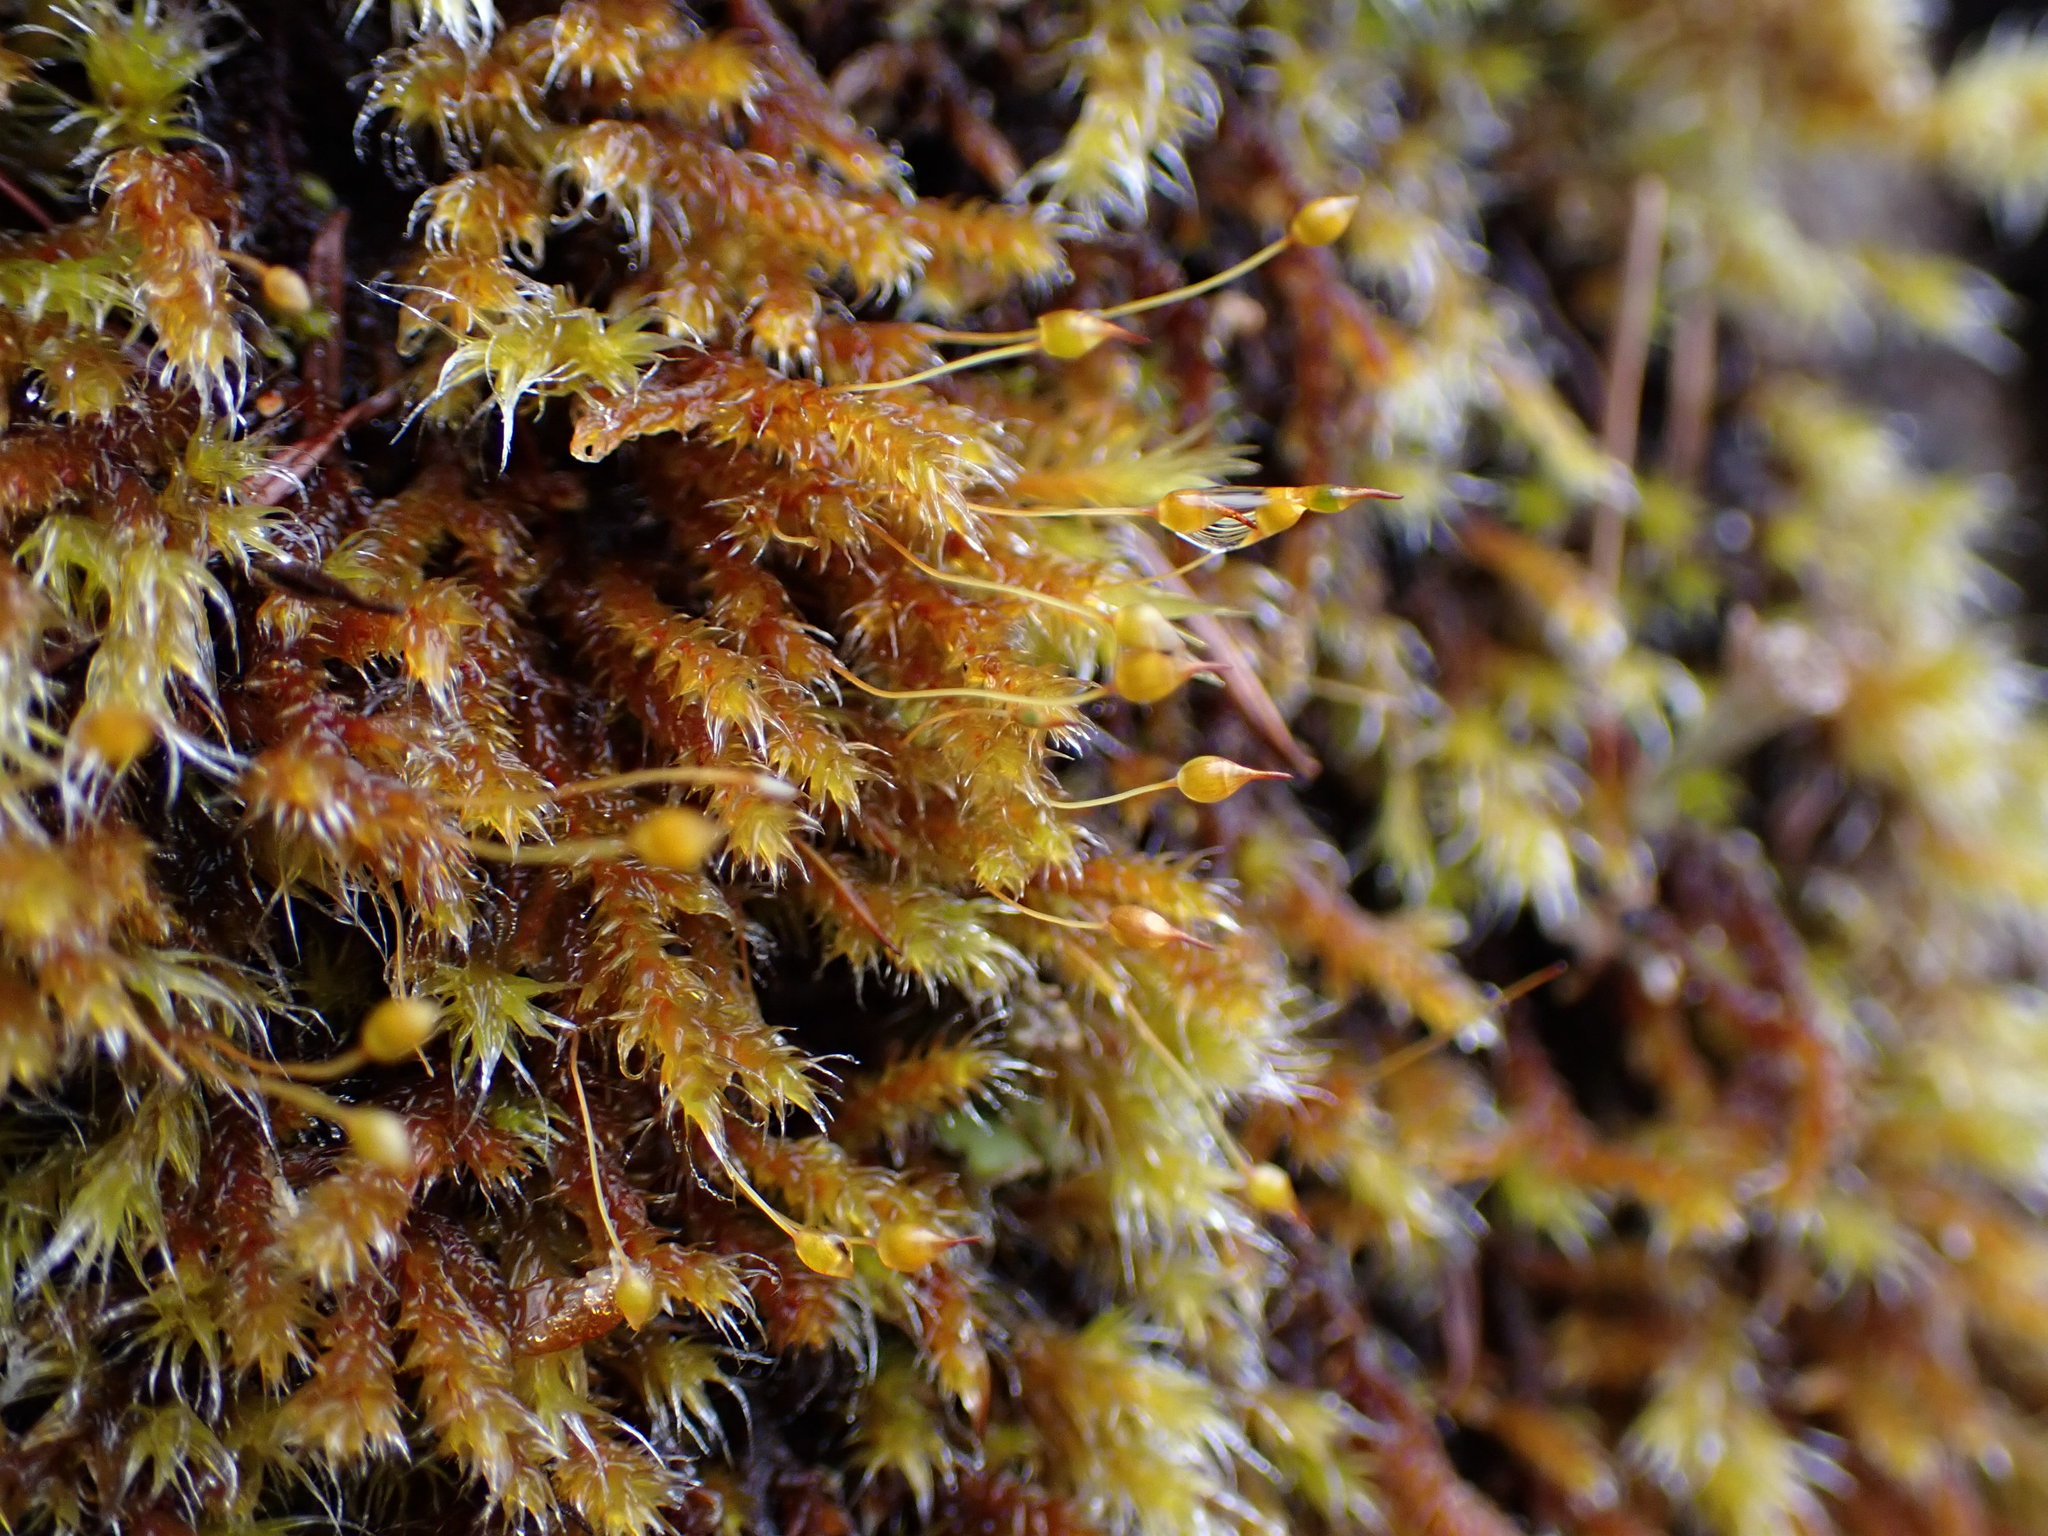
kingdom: Plantae
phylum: Bryophyta
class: Bryopsida
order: Hedwigiales
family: Hedwigiaceae
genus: Pseudobraunia
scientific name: Pseudobraunia californica
